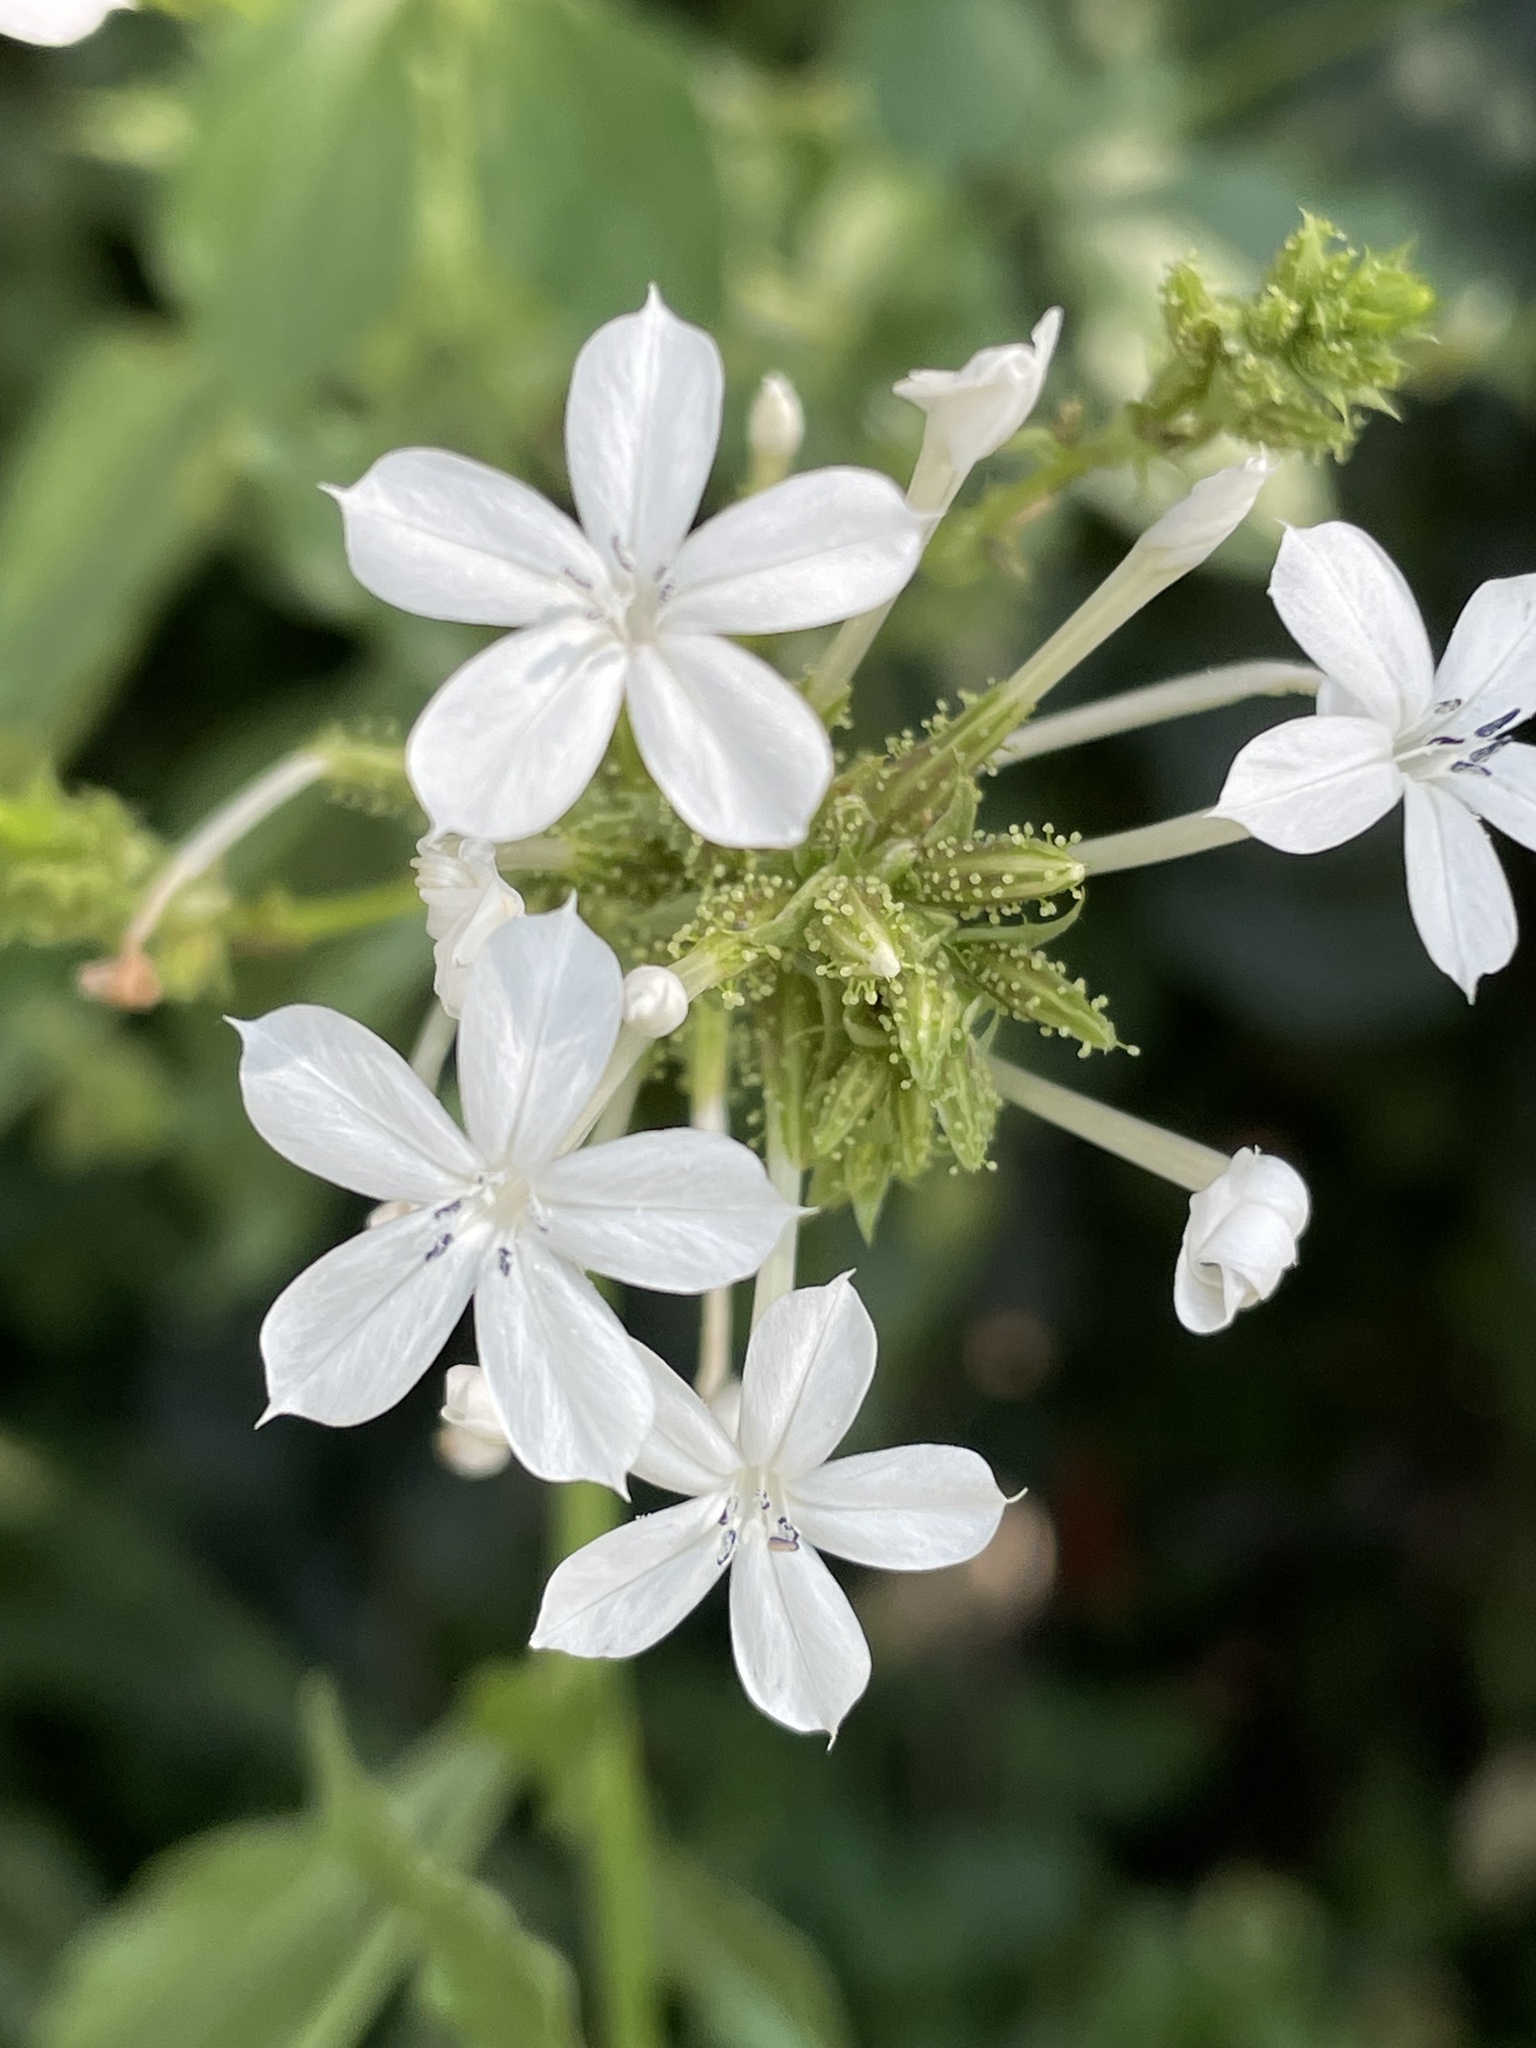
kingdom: Plantae
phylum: Tracheophyta
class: Magnoliopsida
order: Caryophyllales
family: Plumbaginaceae
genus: Plumbago
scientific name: Plumbago zeylanica
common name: Doctorbush
